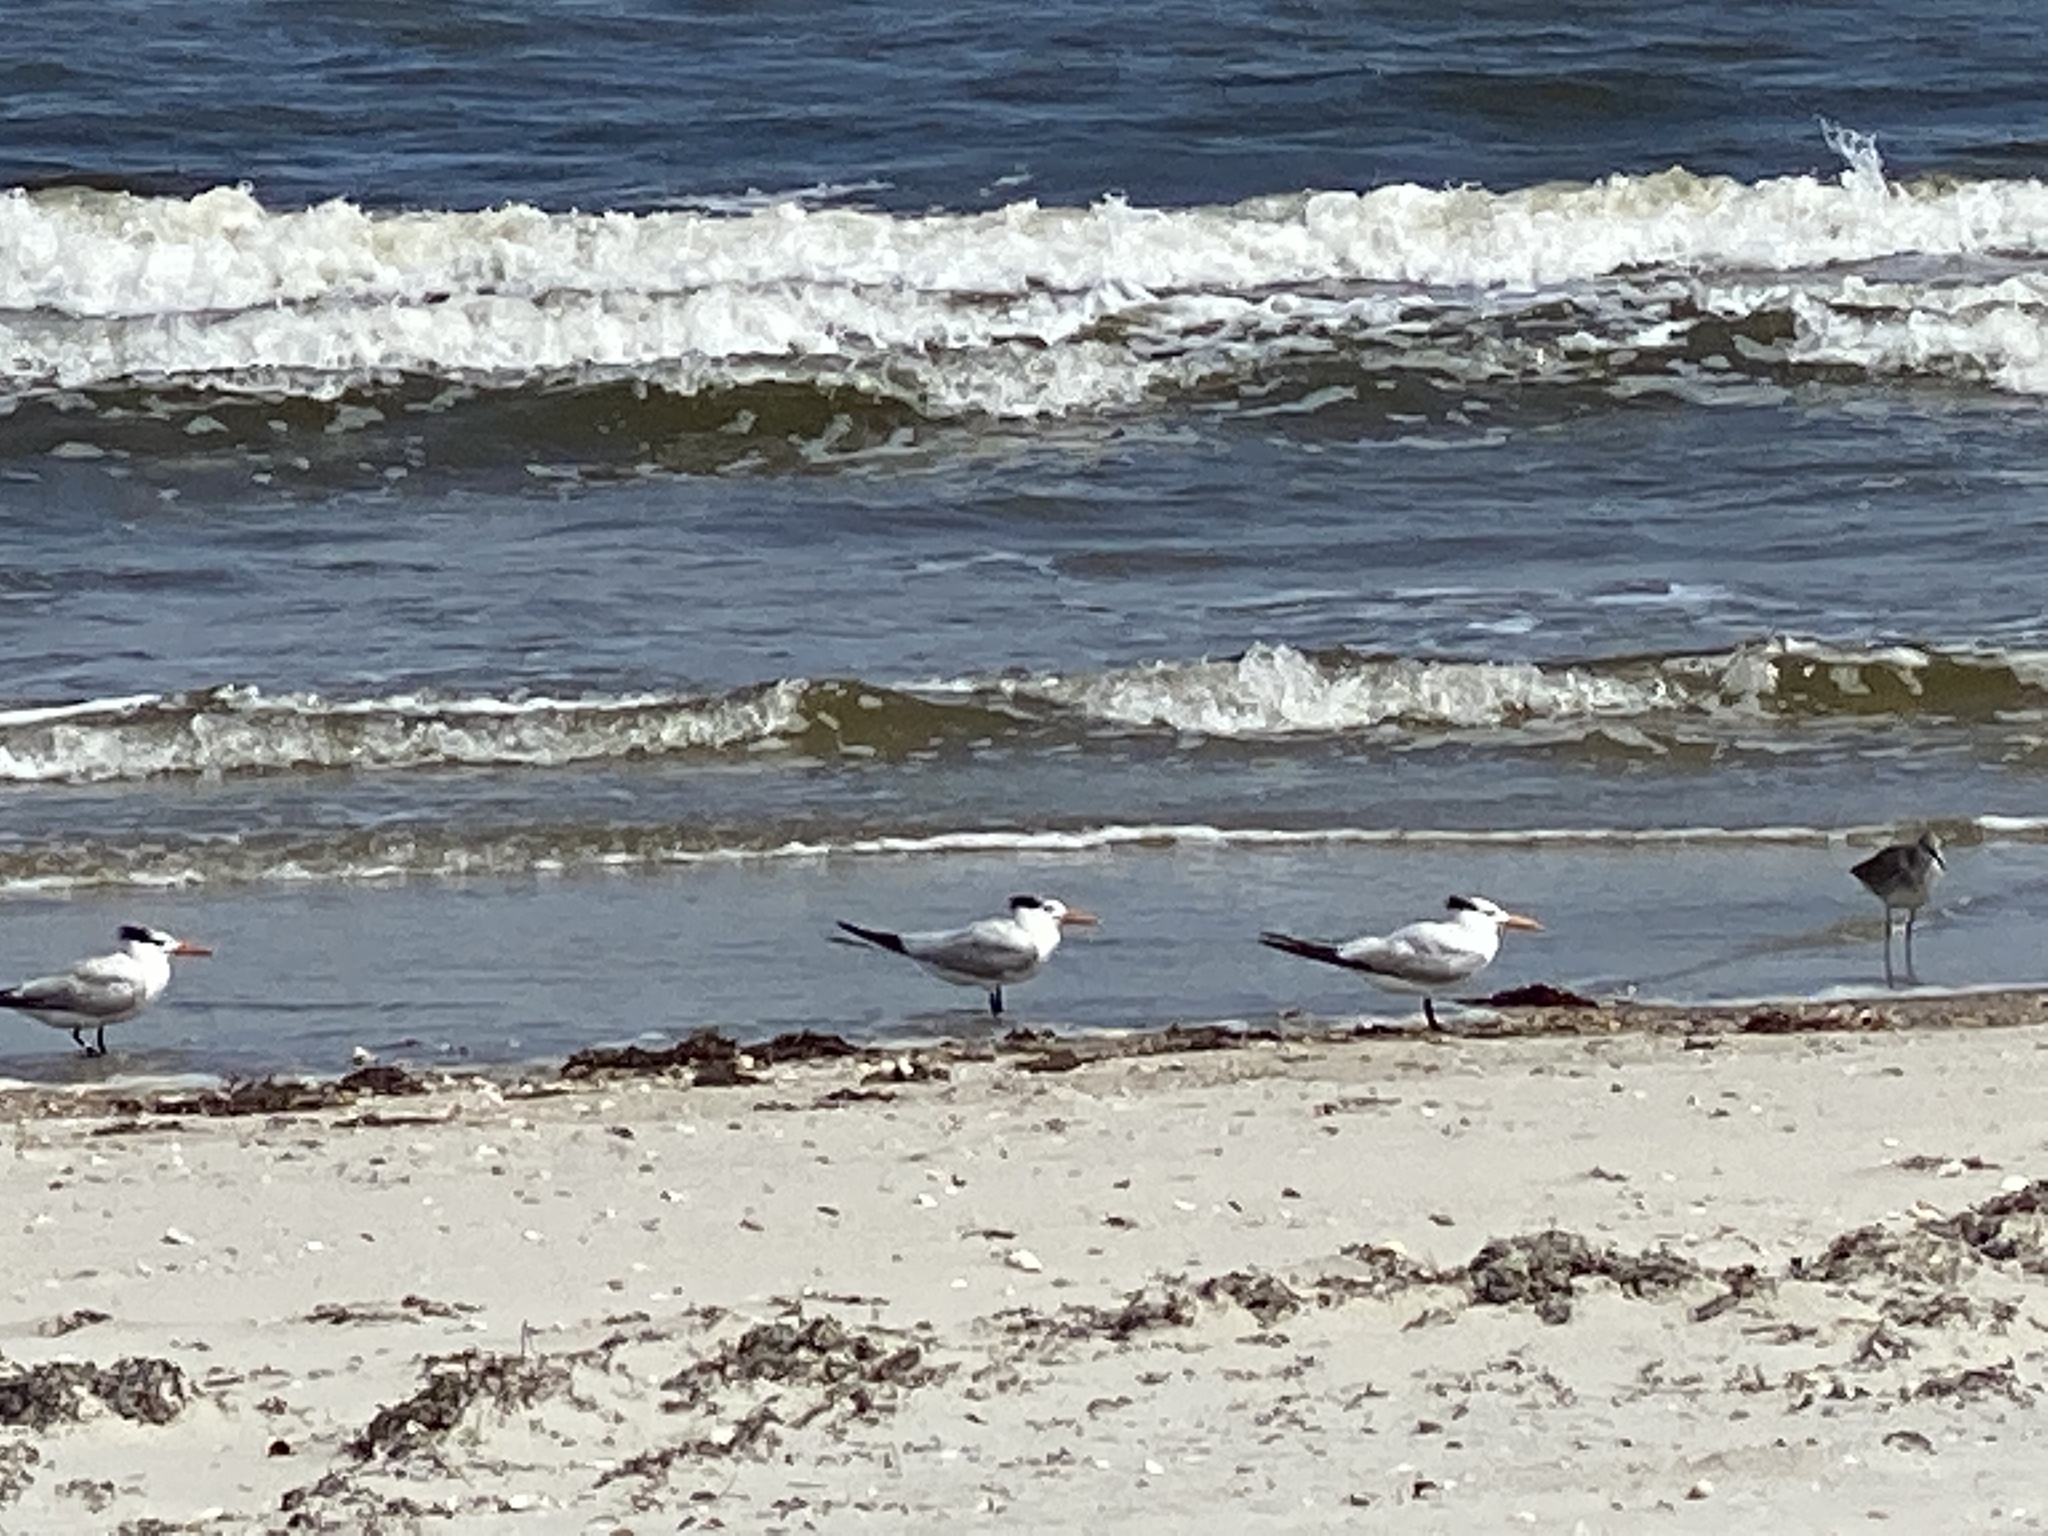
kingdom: Animalia
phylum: Chordata
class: Aves
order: Charadriiformes
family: Laridae
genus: Thalasseus
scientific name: Thalasseus maximus
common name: Royal tern
